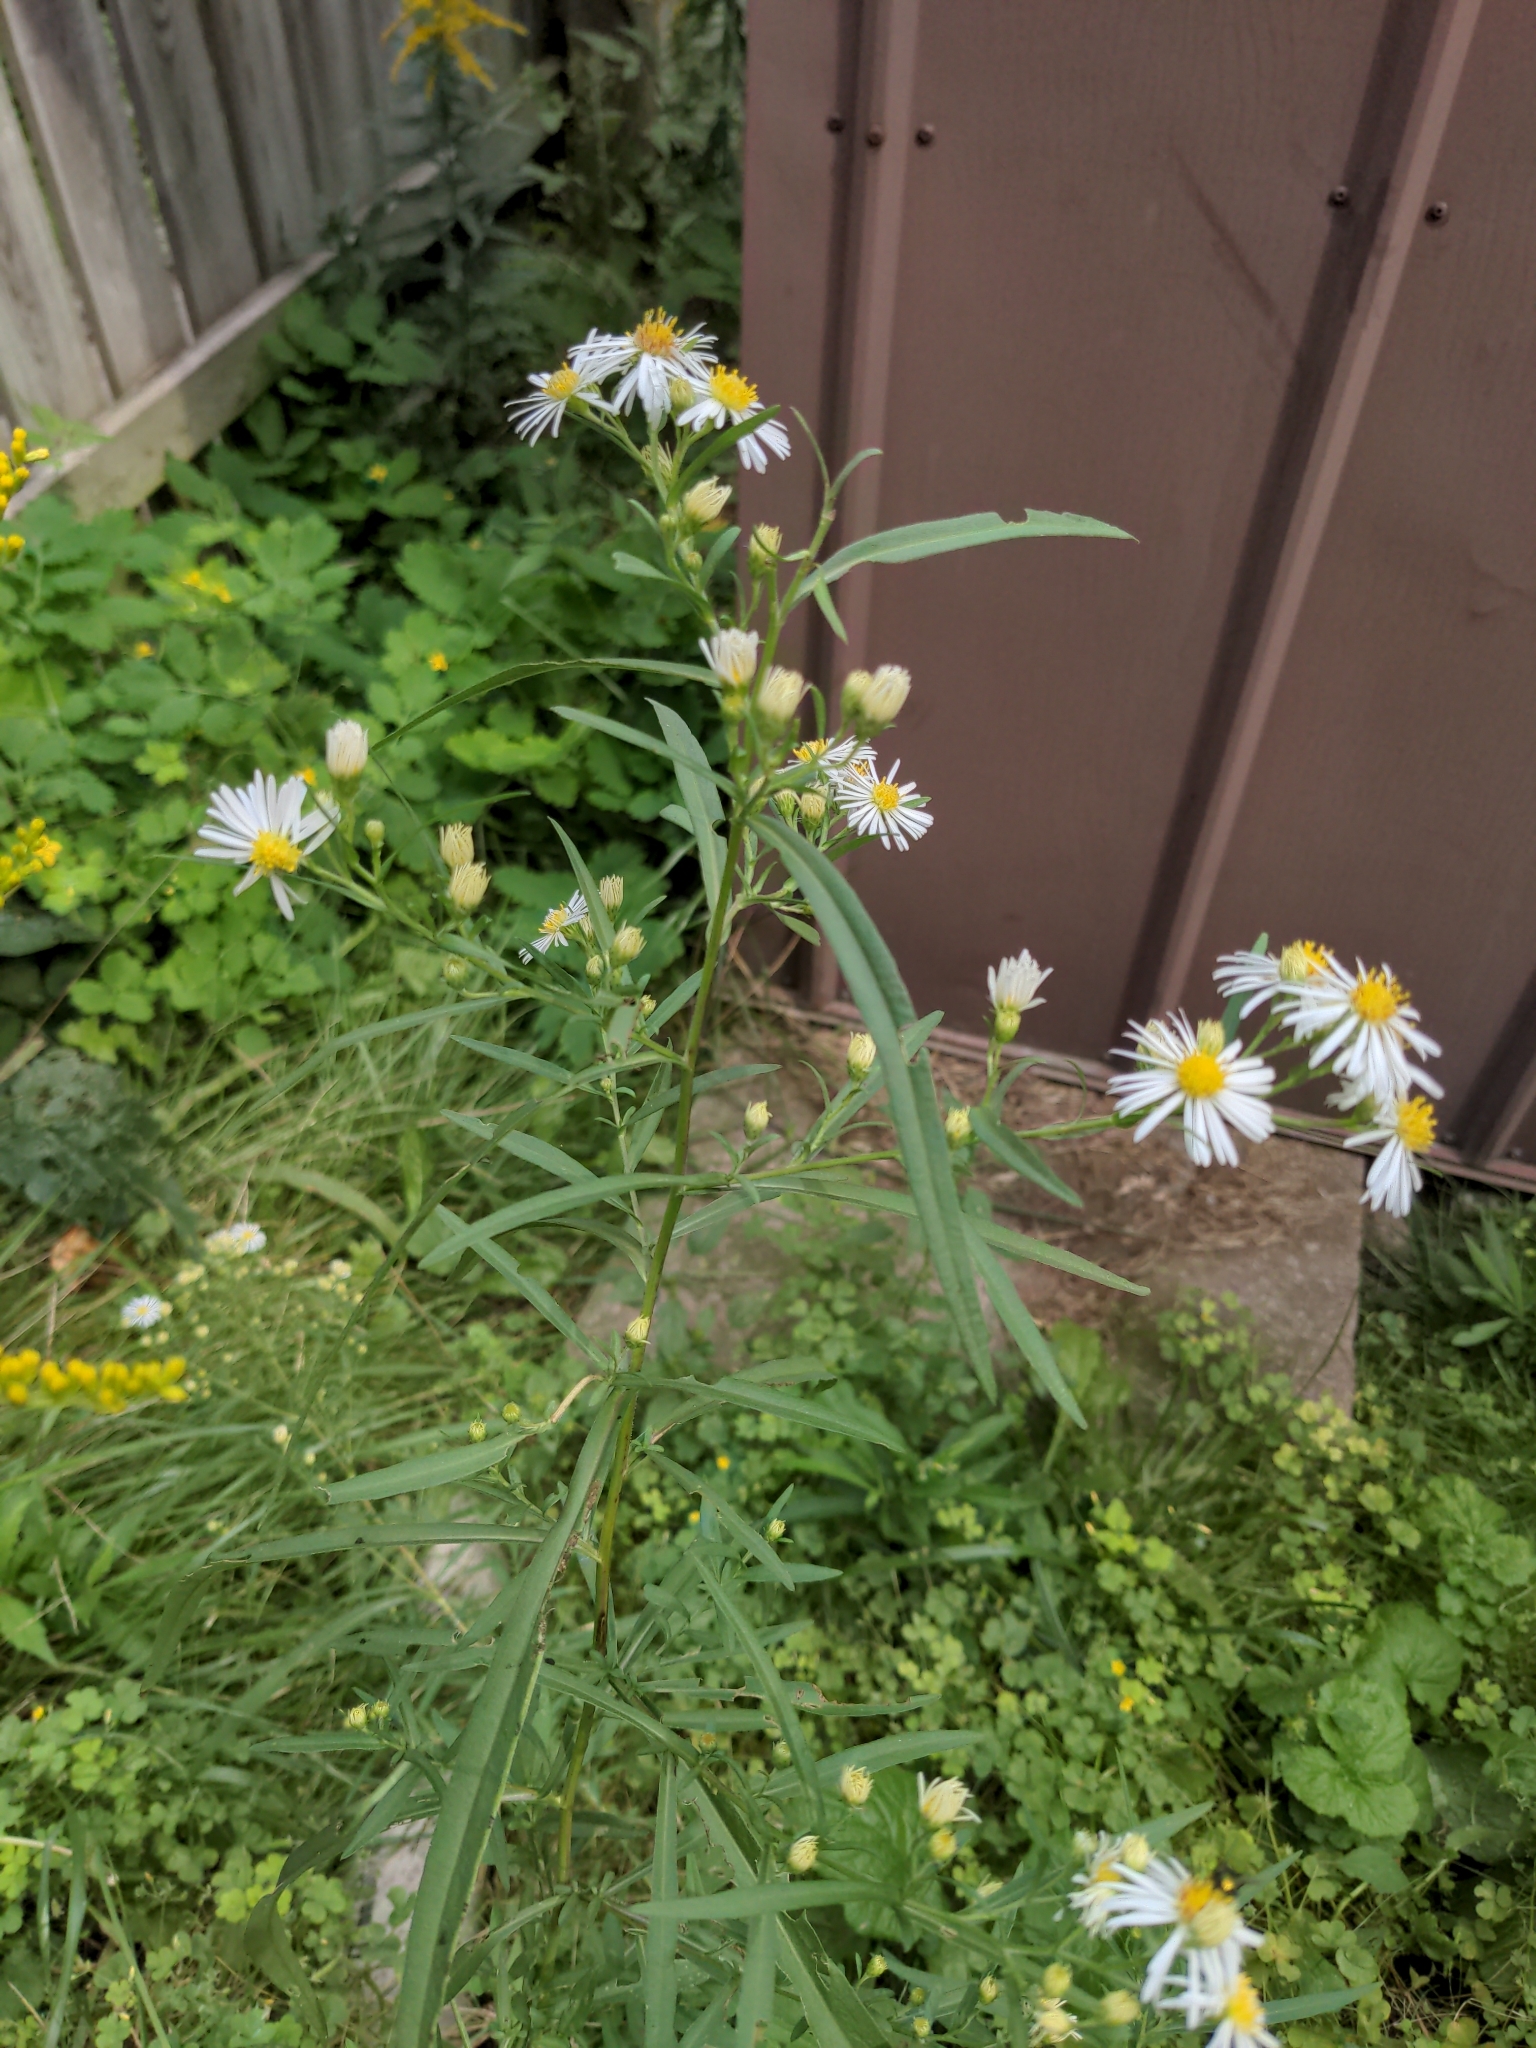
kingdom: Plantae
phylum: Tracheophyta
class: Magnoliopsida
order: Asterales
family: Asteraceae
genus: Symphyotrichum
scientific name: Symphyotrichum lanceolatum
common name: Panicled aster
